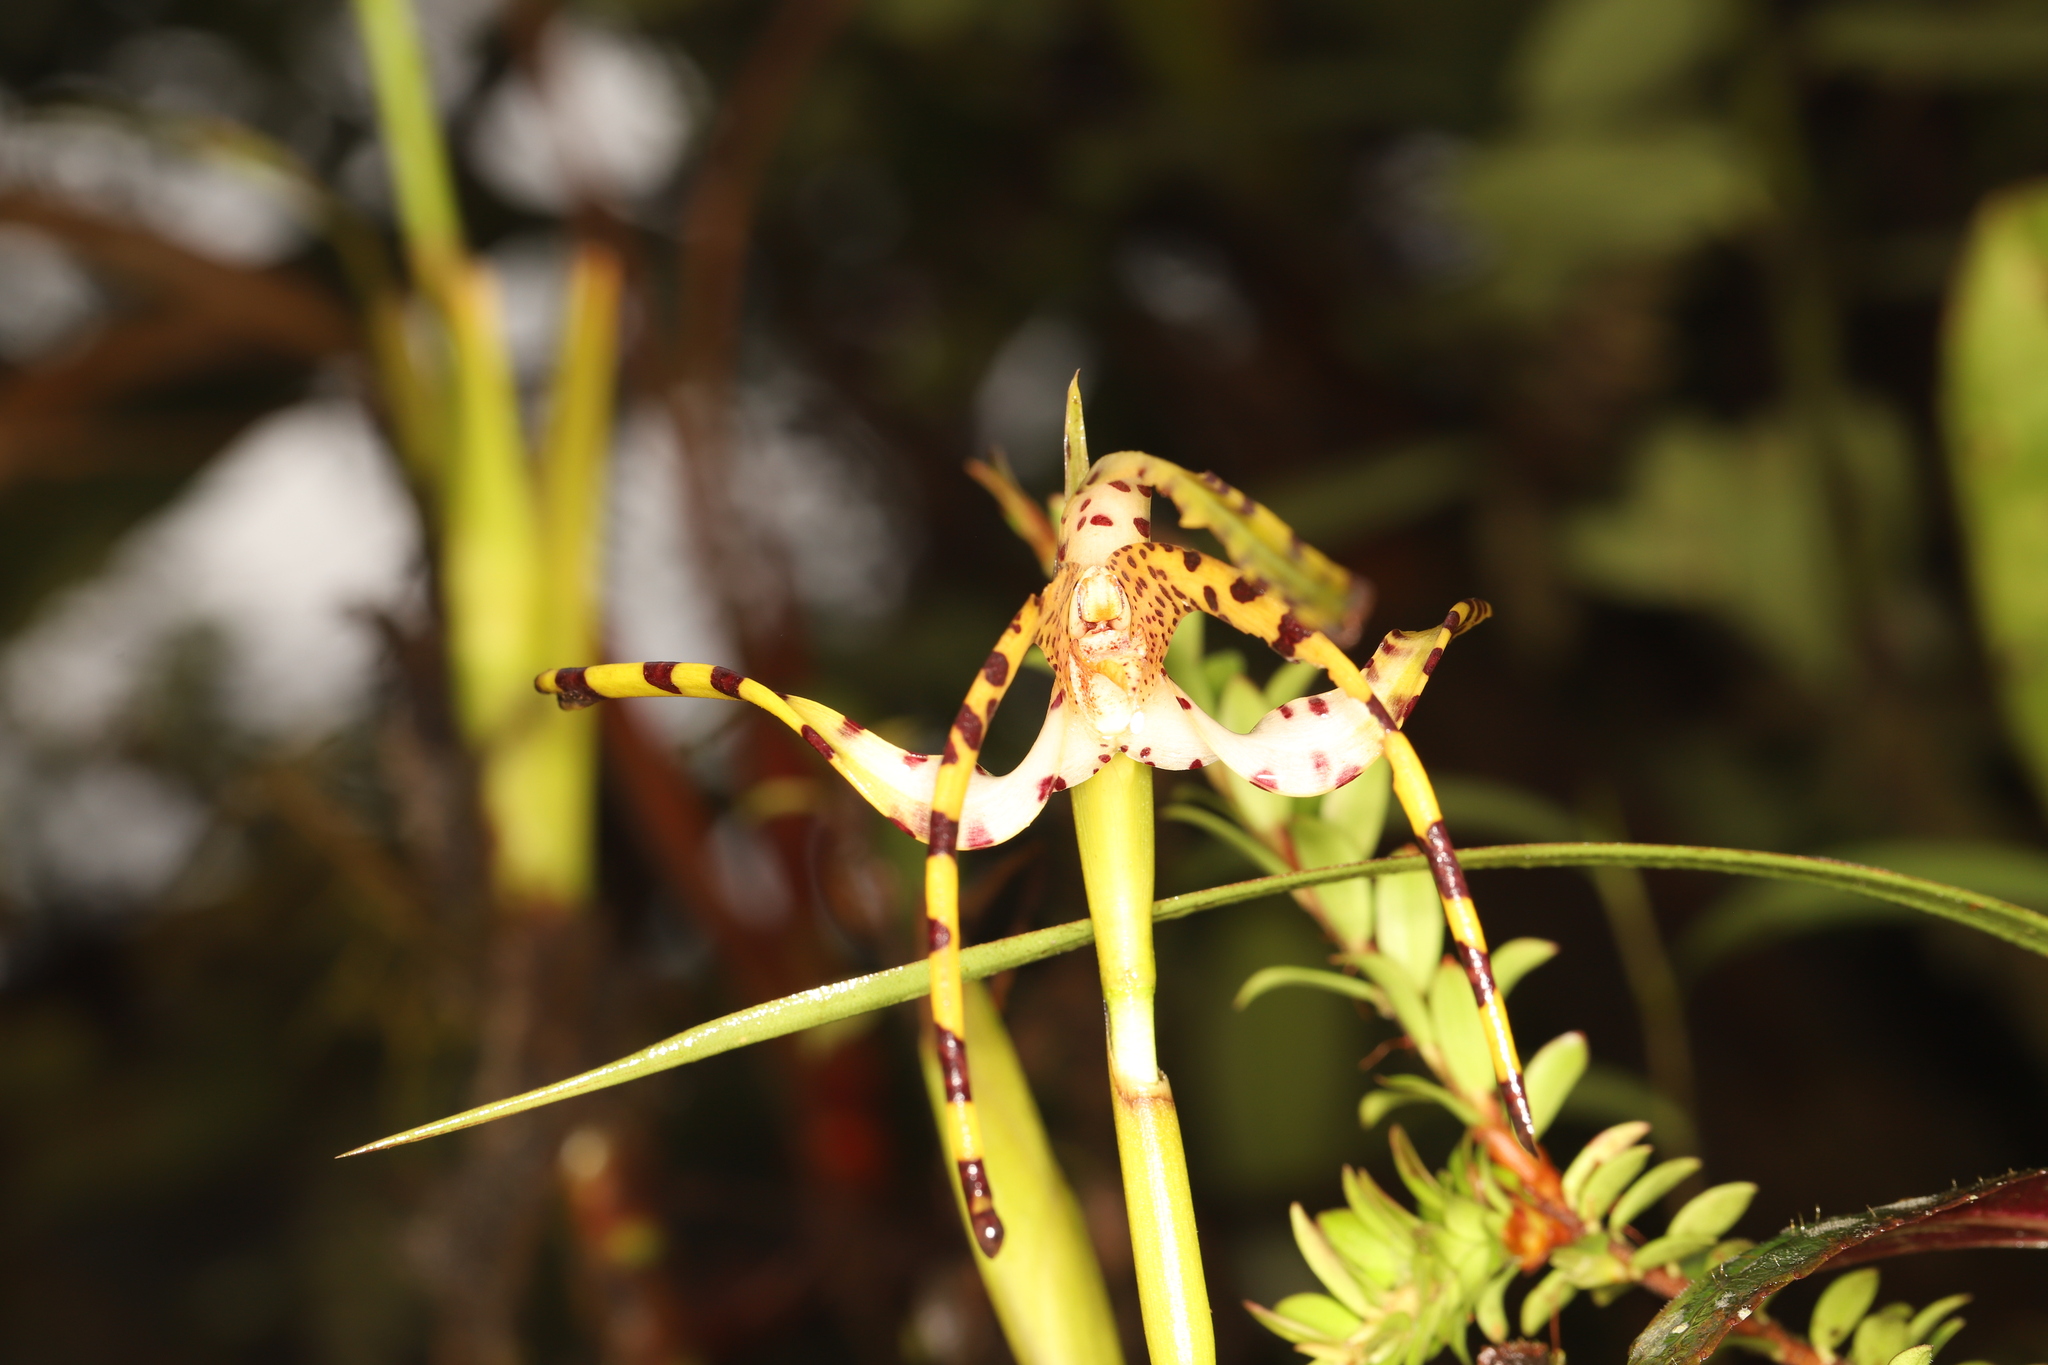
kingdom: Plantae
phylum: Tracheophyta
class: Liliopsida
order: Asparagales
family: Orchidaceae
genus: Maxillaria
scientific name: Maxillaria speciosa
